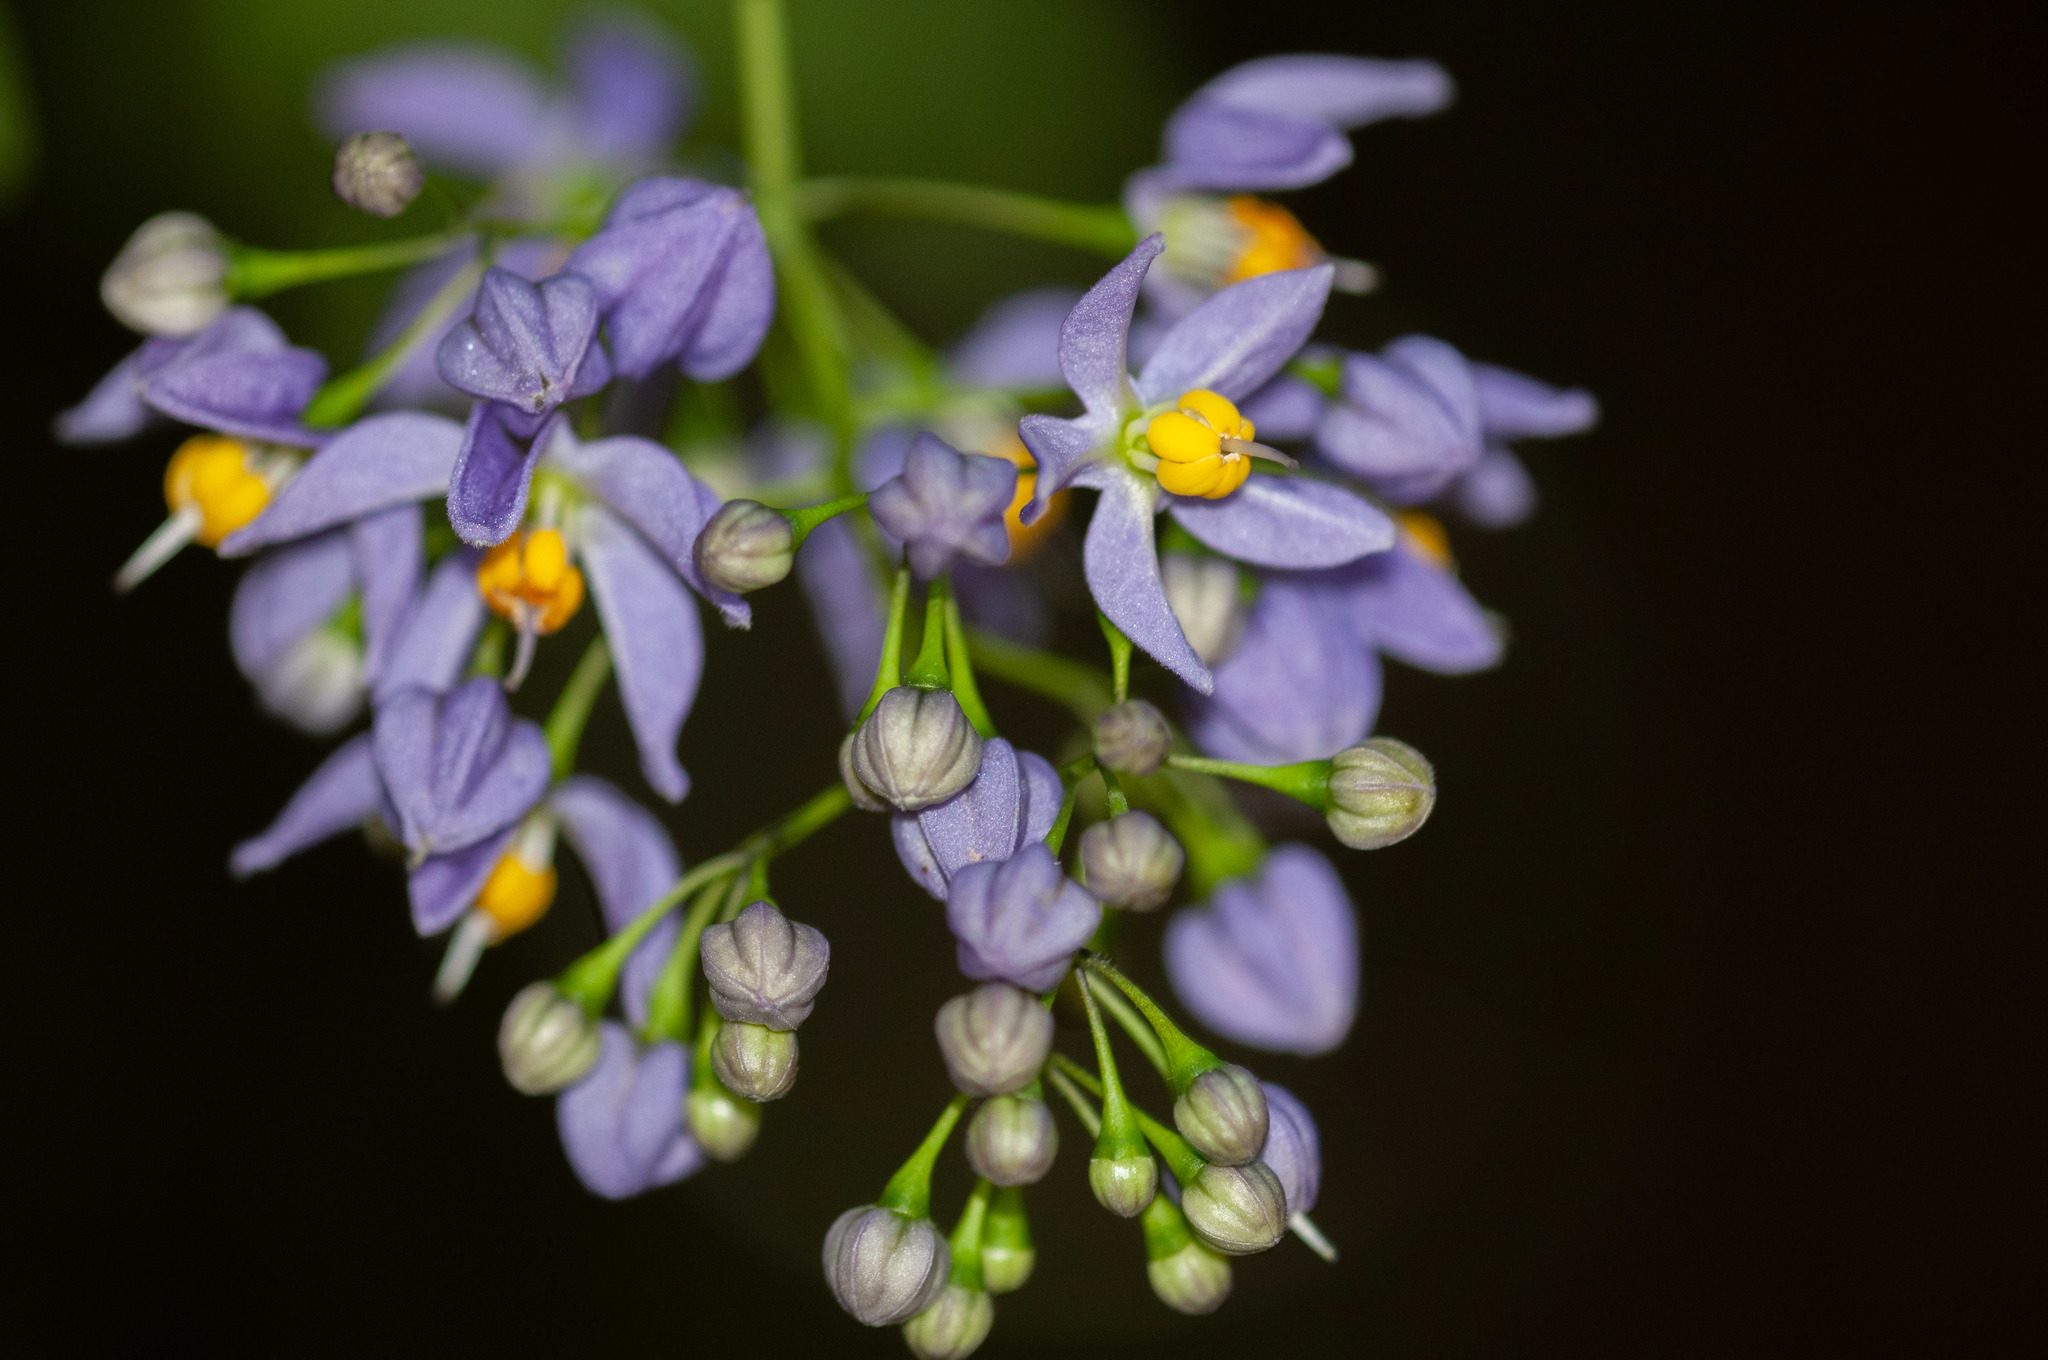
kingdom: Plantae
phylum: Tracheophyta
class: Magnoliopsida
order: Solanales
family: Solanaceae
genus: Solanum
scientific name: Solanum seaforthianum
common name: Brazilian nightshade
